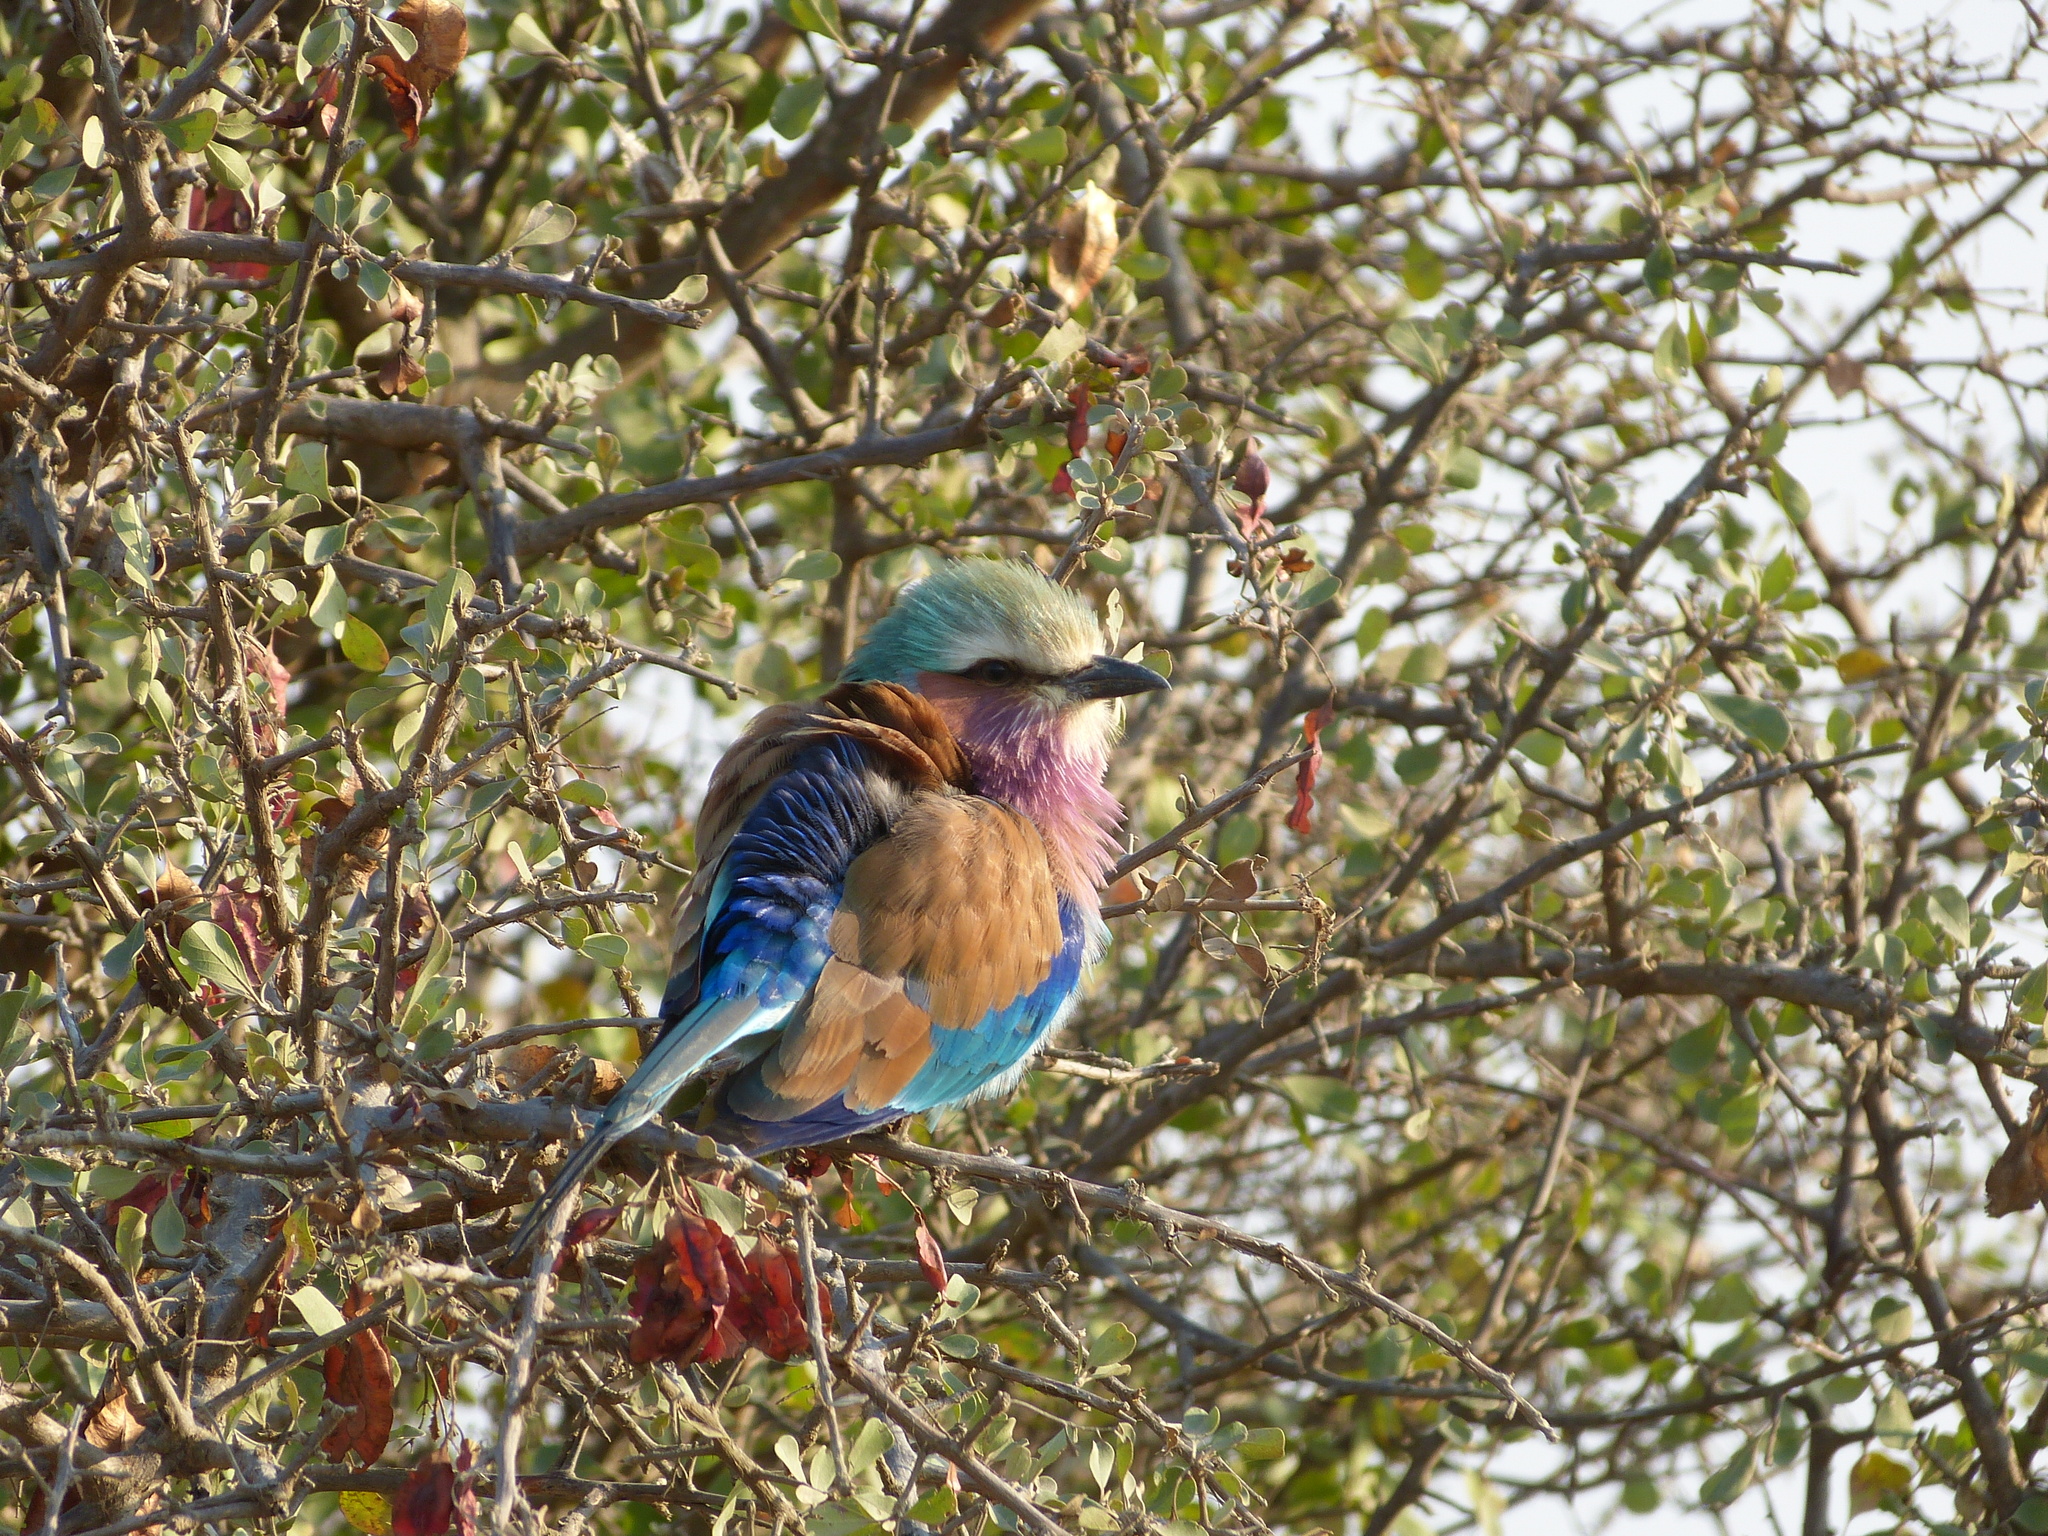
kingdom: Animalia
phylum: Chordata
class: Aves
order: Coraciiformes
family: Coraciidae
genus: Coracias
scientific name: Coracias caudatus
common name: Lilac-breasted roller
